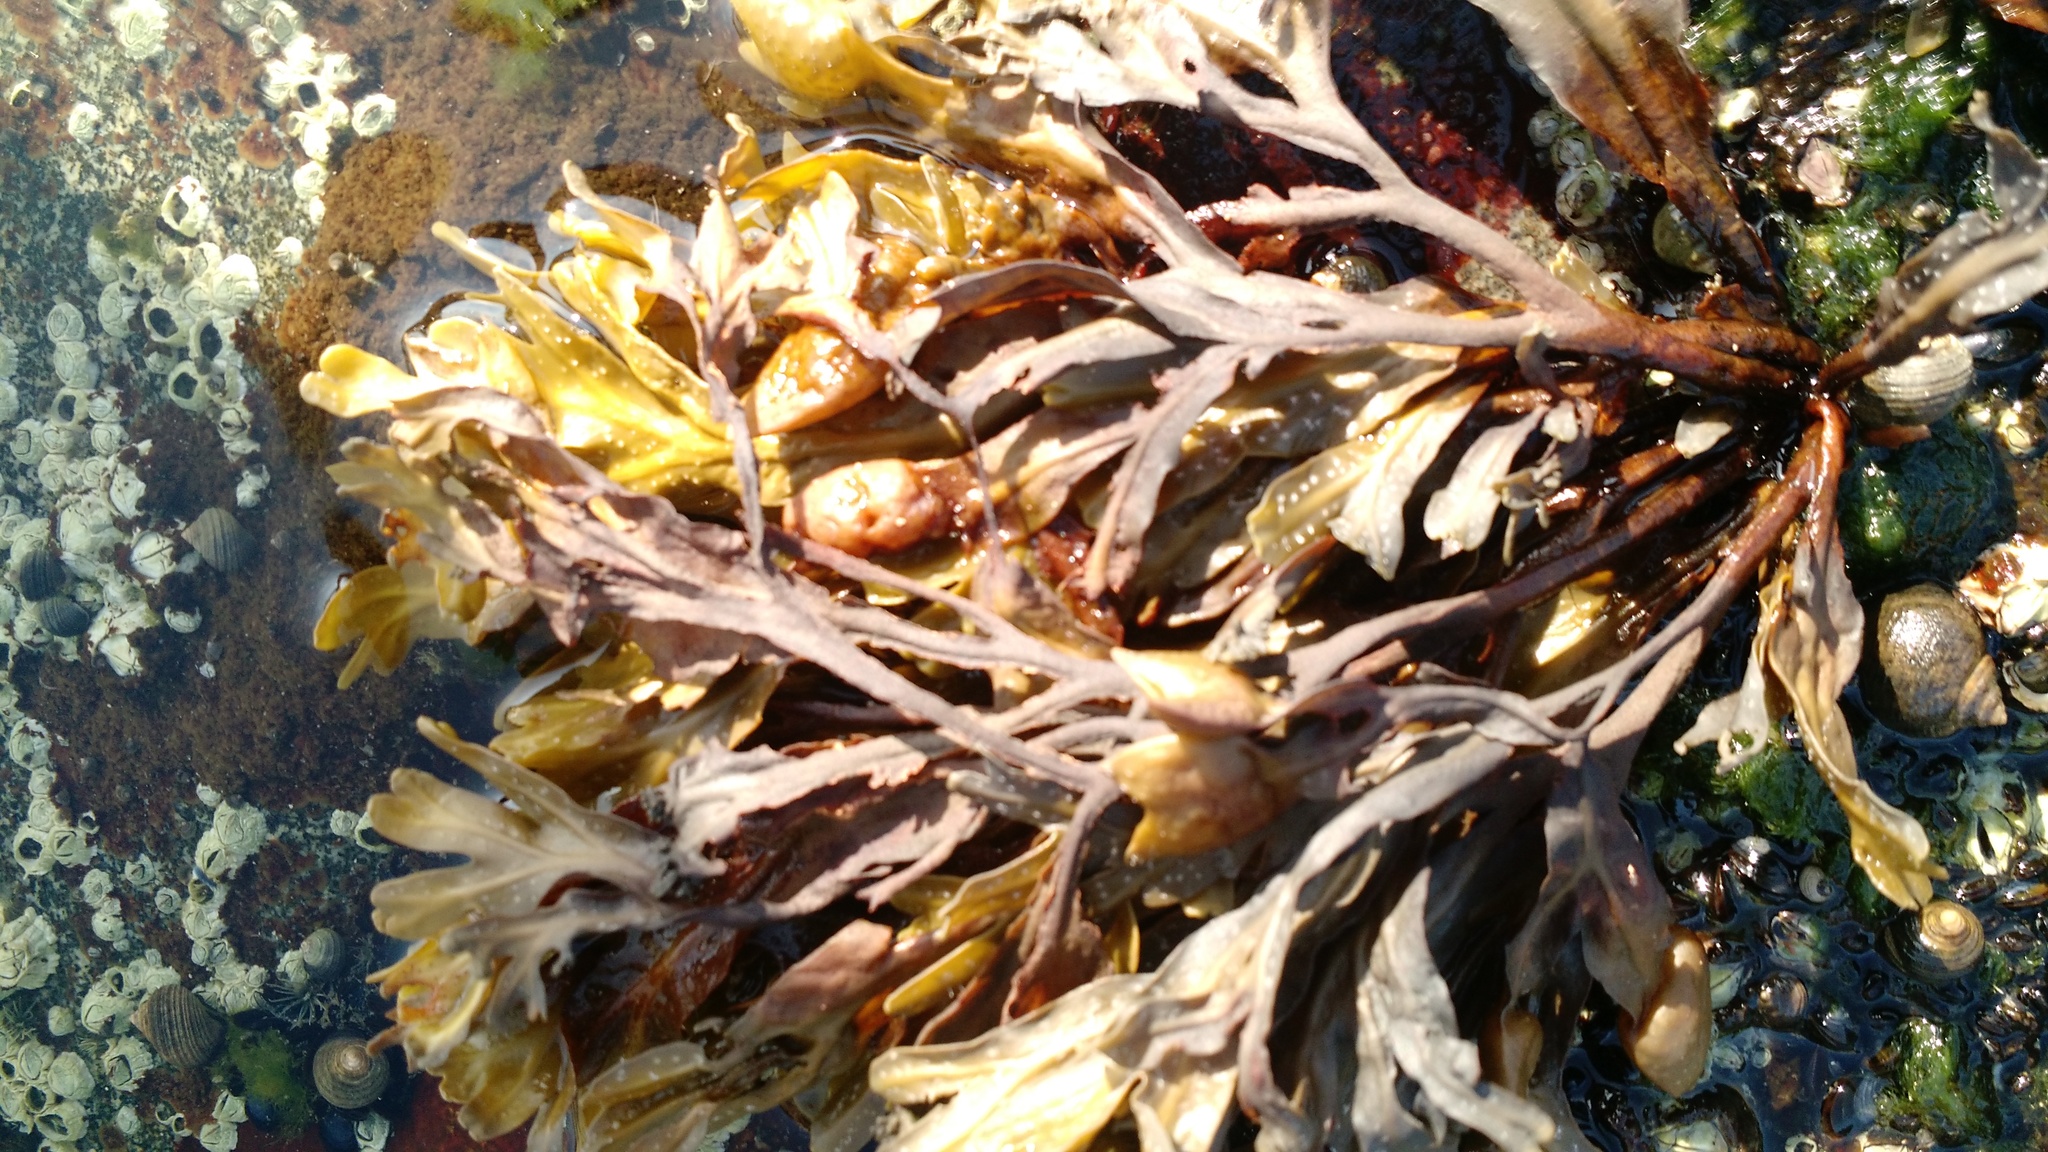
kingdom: Chromista
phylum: Ochrophyta
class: Phaeophyceae
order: Fucales
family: Fucaceae
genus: Fucus
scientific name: Fucus distichus
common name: Rockweed
